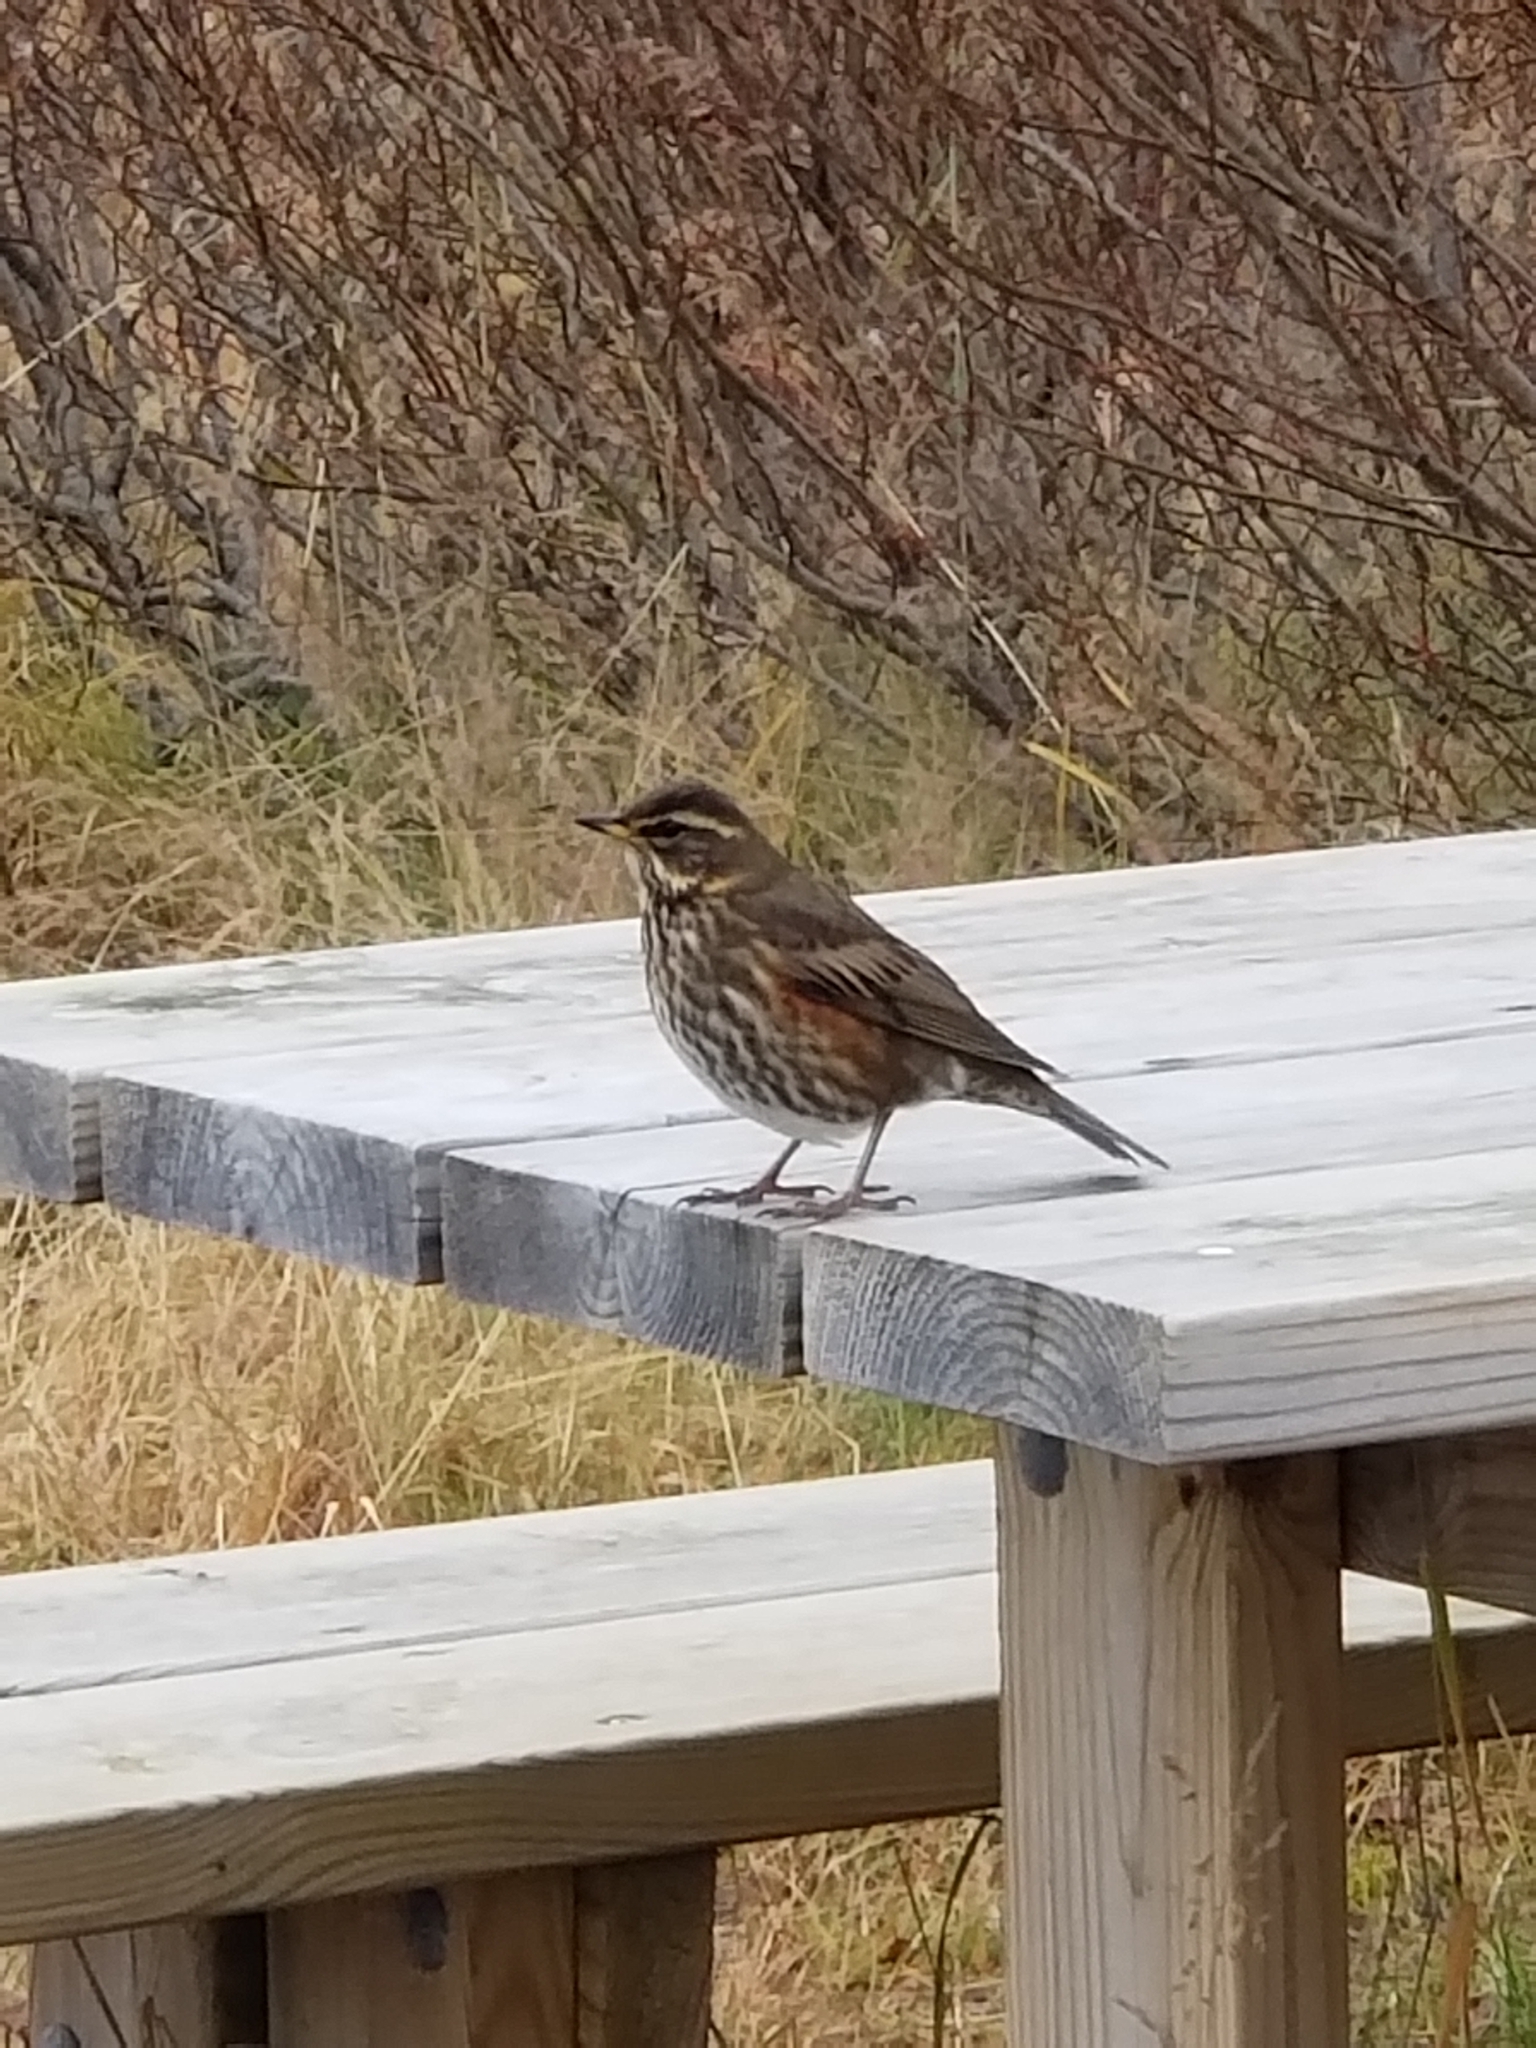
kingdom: Animalia
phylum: Chordata
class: Aves
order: Passeriformes
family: Turdidae
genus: Turdus
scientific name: Turdus iliacus
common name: Redwing
